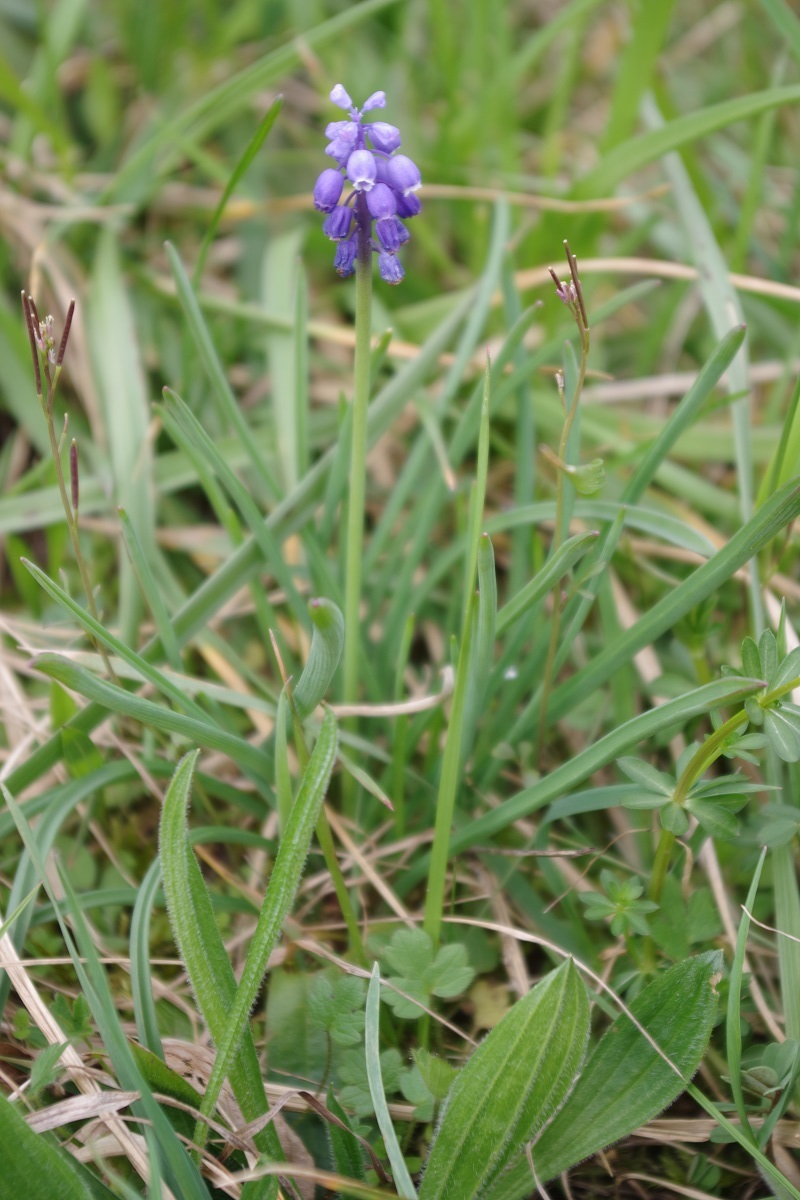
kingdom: Plantae
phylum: Tracheophyta
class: Liliopsida
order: Asparagales
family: Asparagaceae
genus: Muscari
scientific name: Muscari botryoides
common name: Compact grape-hyacinth
